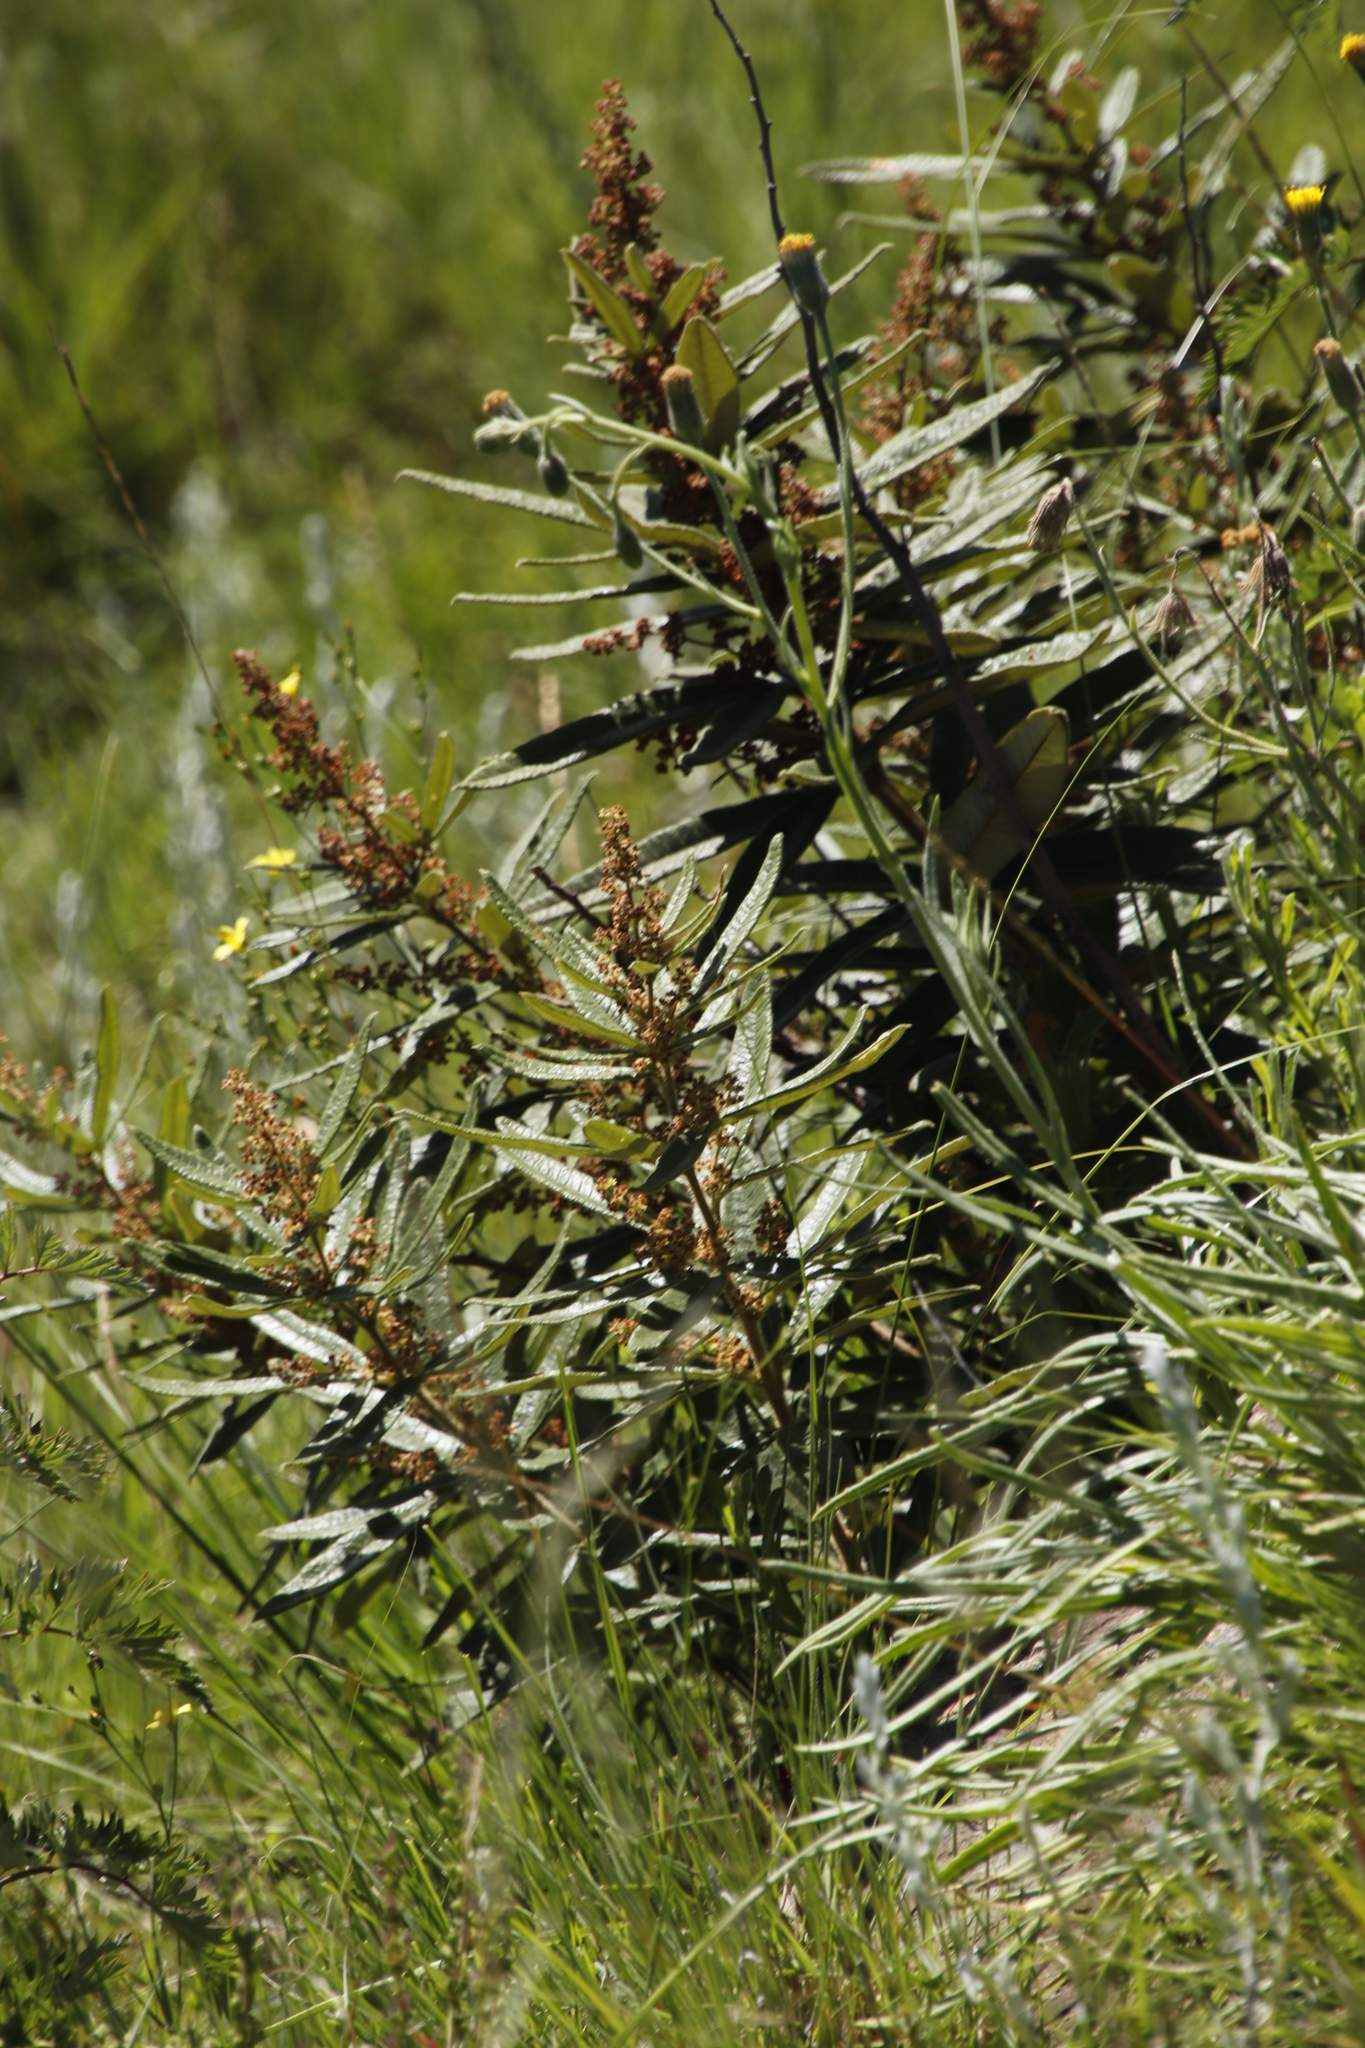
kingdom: Plantae
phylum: Tracheophyta
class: Magnoliopsida
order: Sapindales
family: Anacardiaceae
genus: Searsia
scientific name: Searsia discolor
